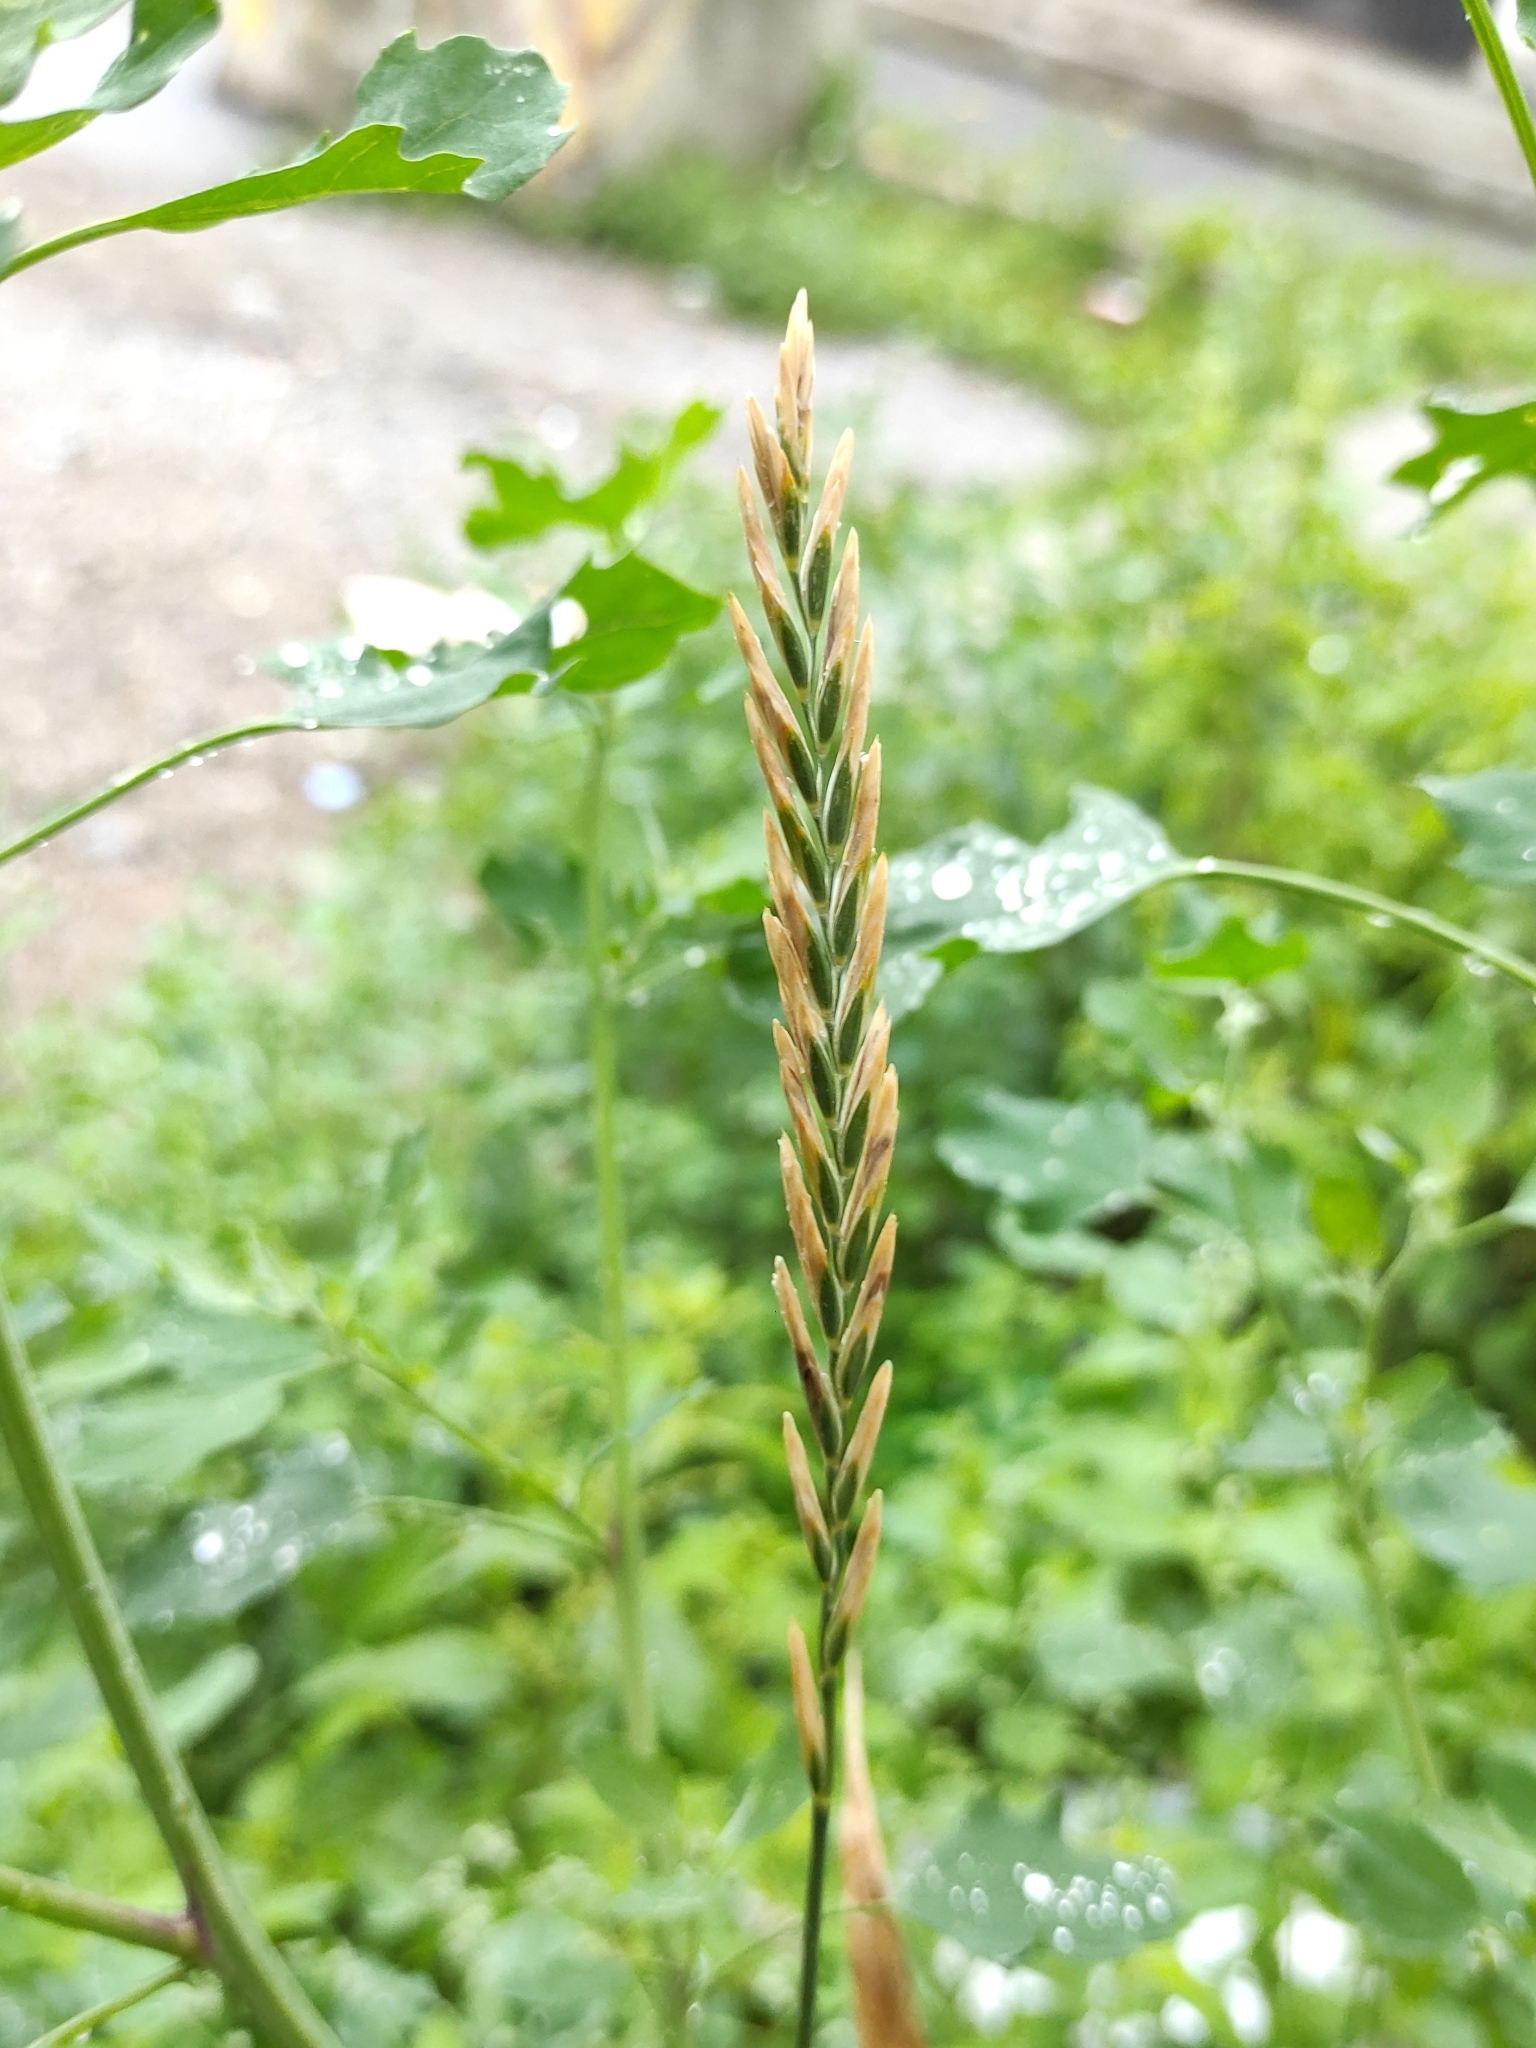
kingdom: Plantae
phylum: Tracheophyta
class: Liliopsida
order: Poales
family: Poaceae
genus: Elymus
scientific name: Elymus repens
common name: Quackgrass
